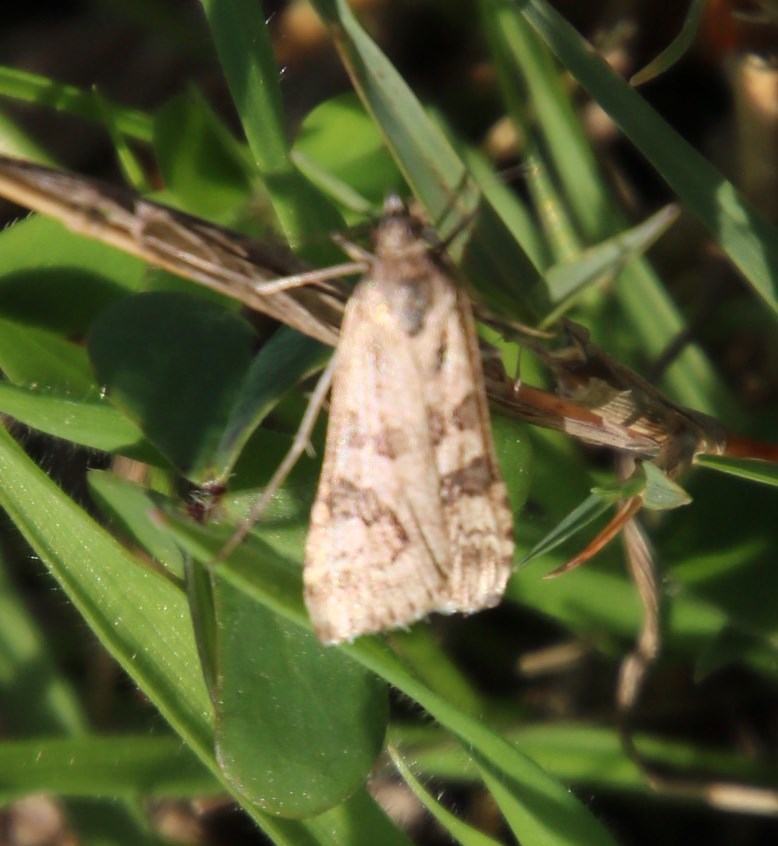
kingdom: Animalia
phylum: Arthropoda
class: Insecta
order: Lepidoptera
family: Crambidae
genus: Nomophila
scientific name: Nomophila noctuella
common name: Rush veneer
